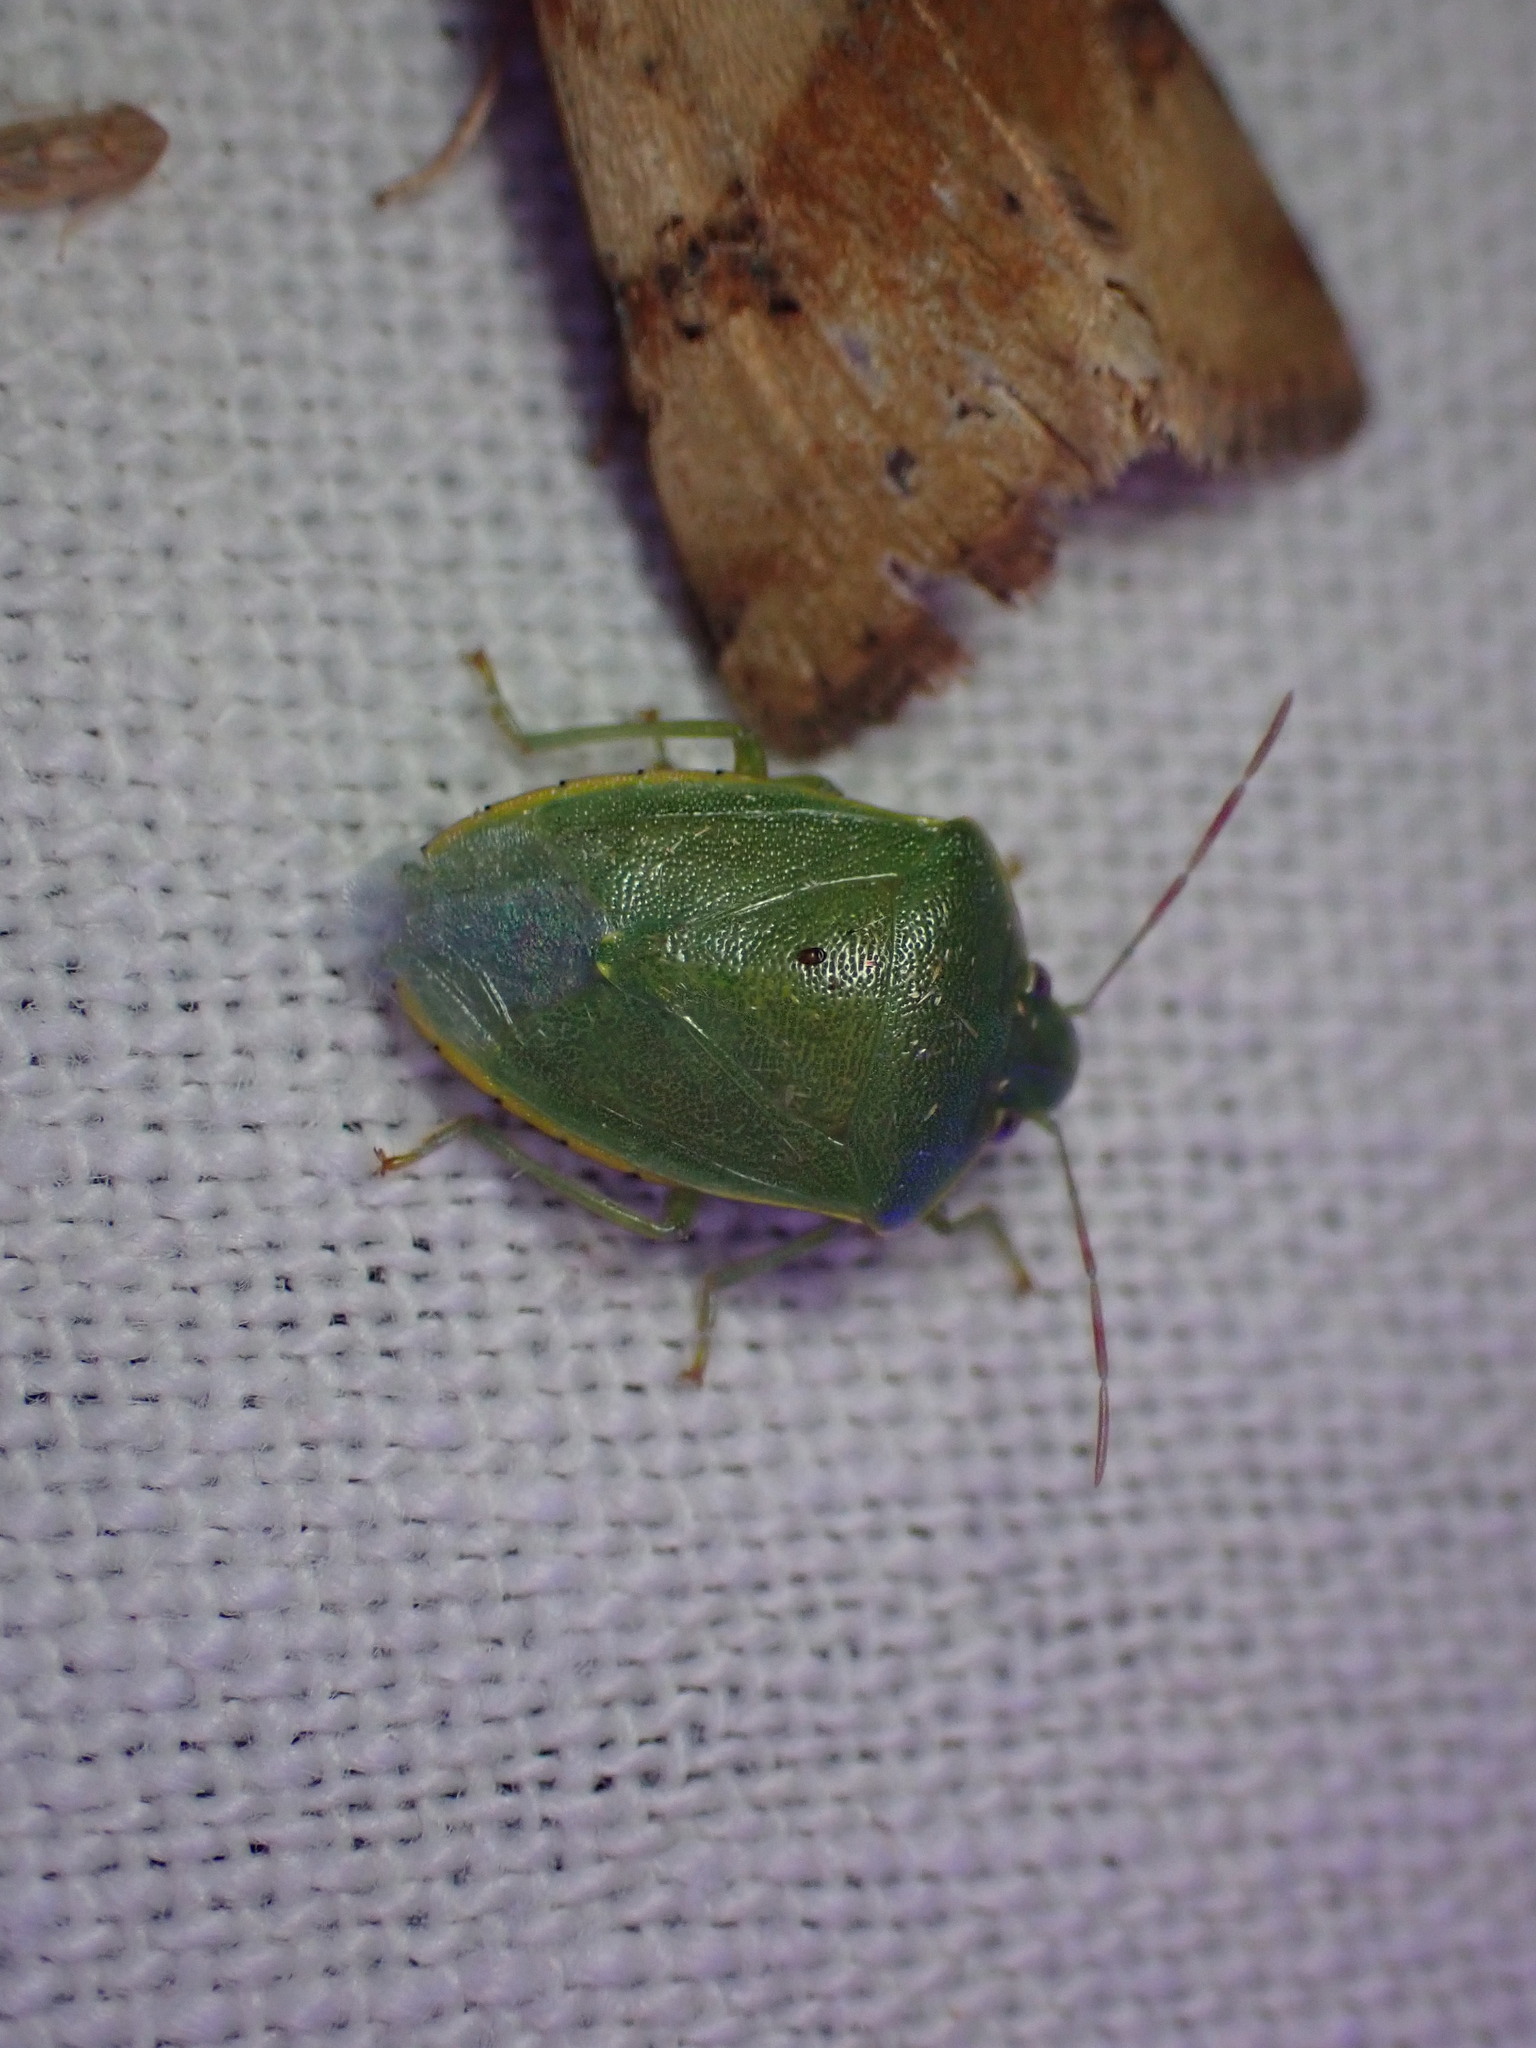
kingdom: Animalia
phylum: Arthropoda
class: Insecta
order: Hemiptera
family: Pentatomidae
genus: Acrosternum
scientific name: Acrosternum heegeri
